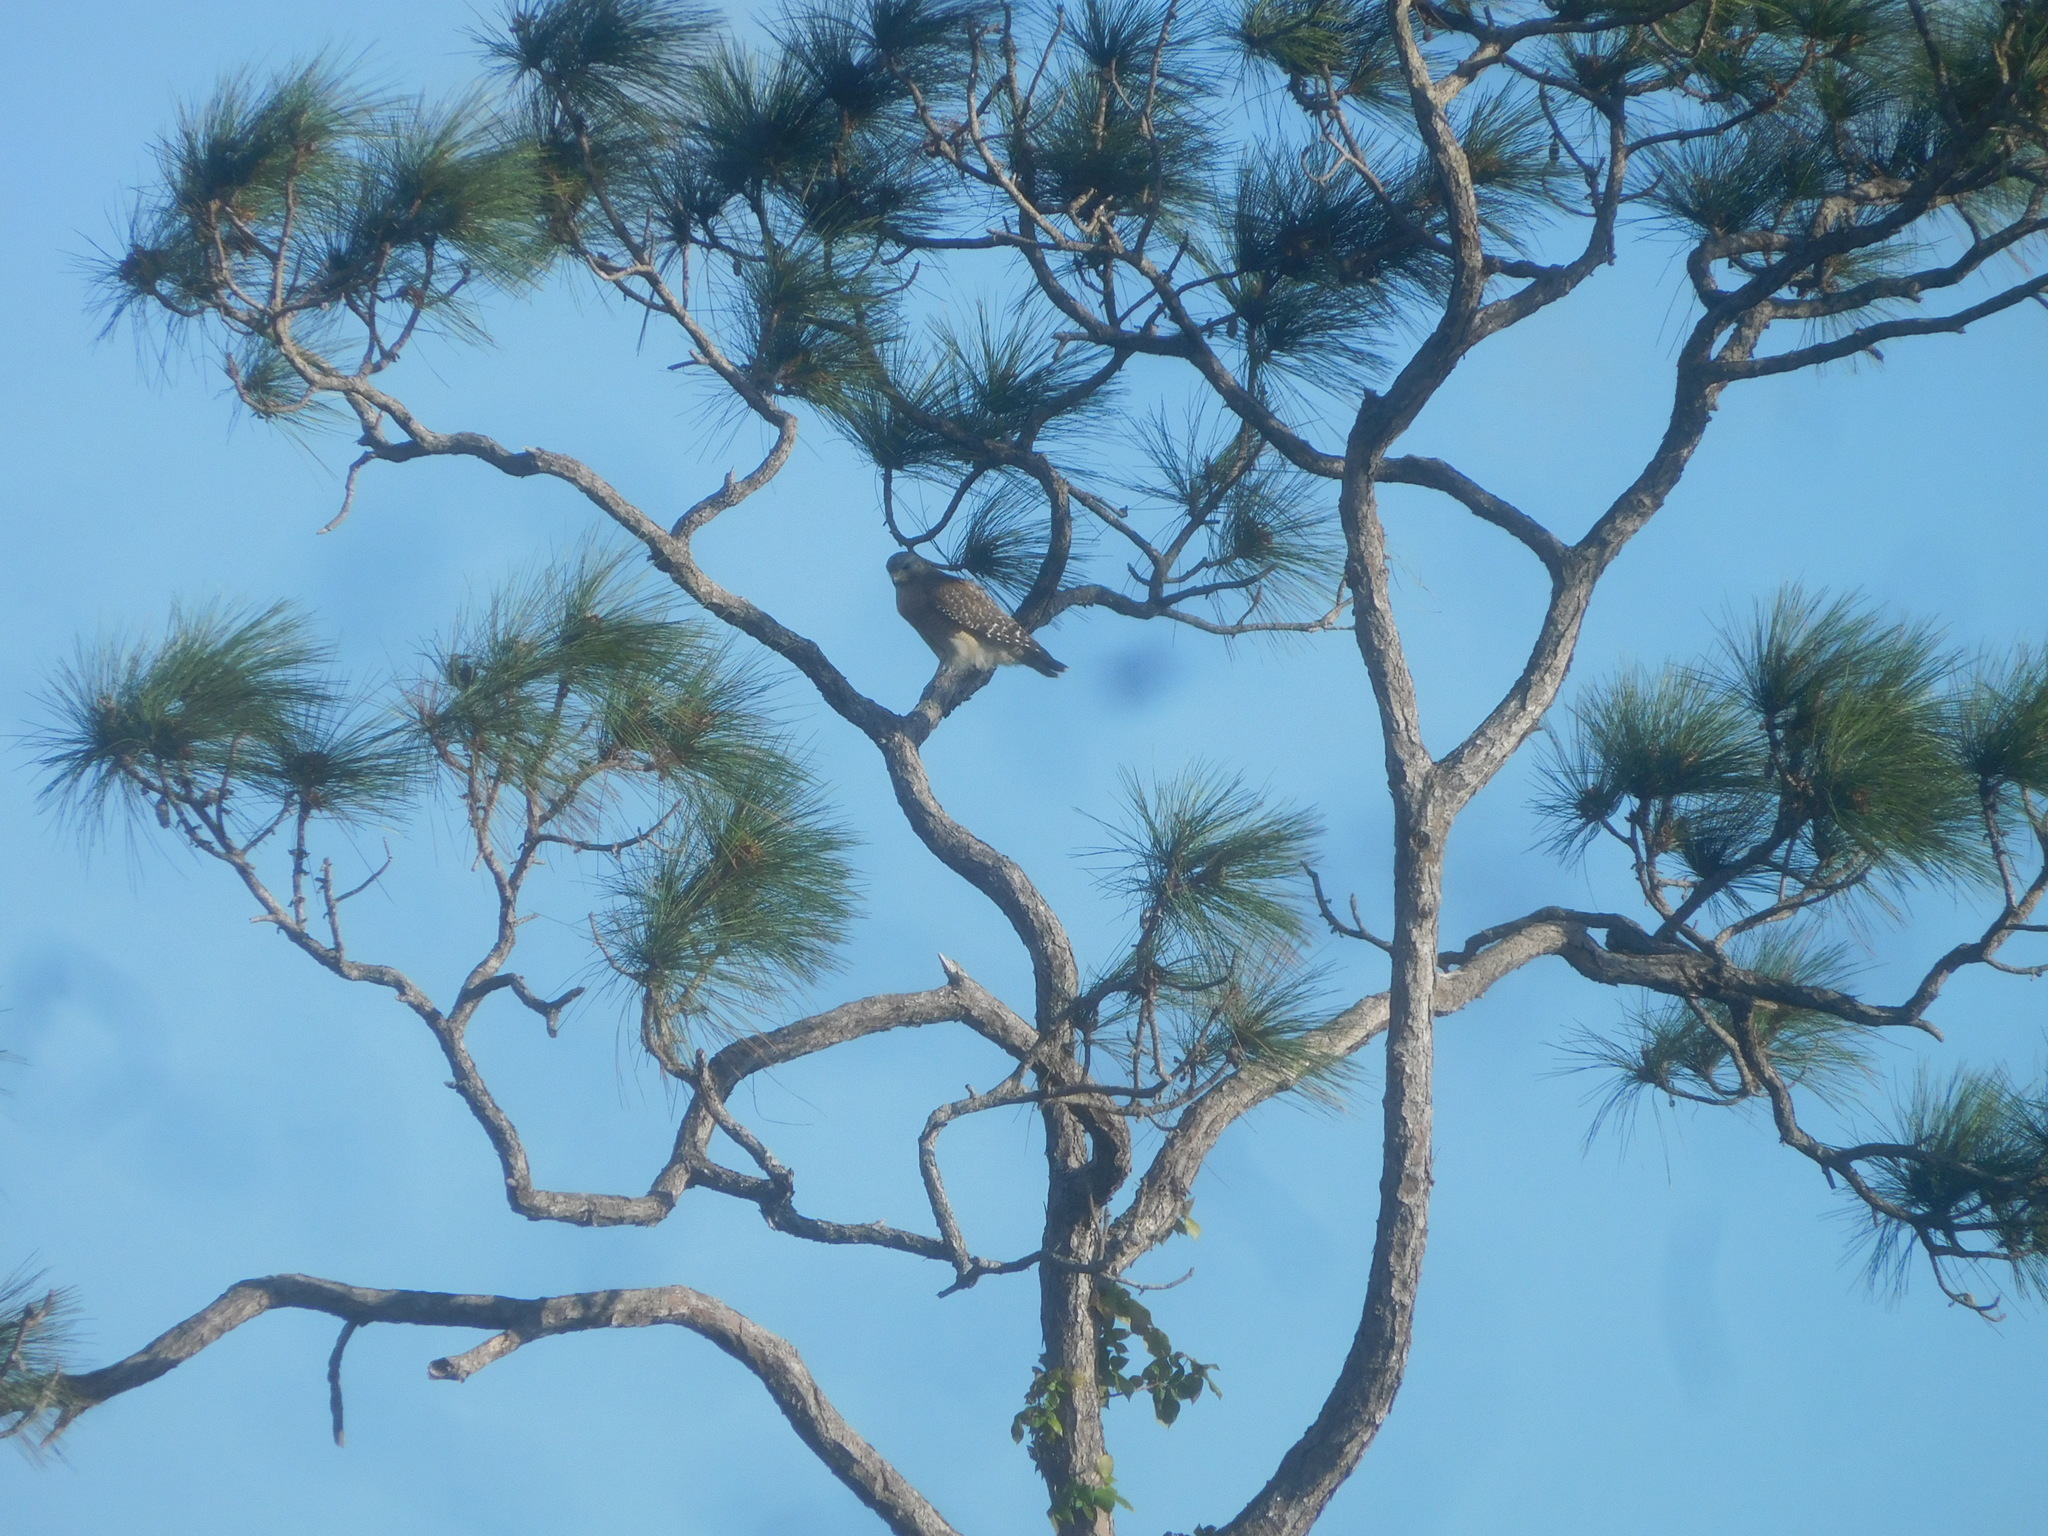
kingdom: Animalia
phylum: Chordata
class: Aves
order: Accipitriformes
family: Accipitridae
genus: Buteo
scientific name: Buteo lineatus
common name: Red-shouldered hawk
